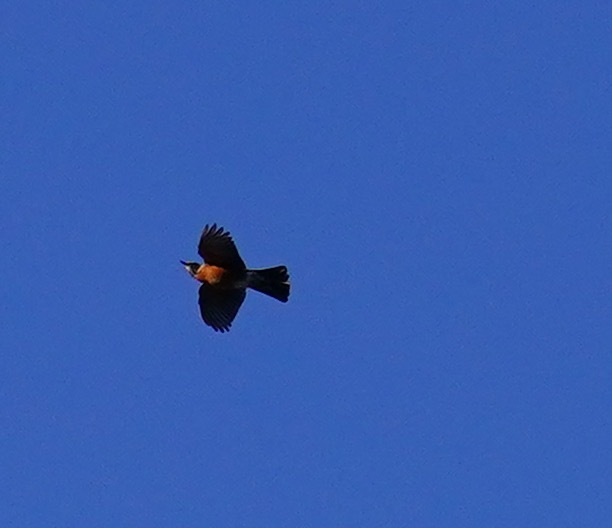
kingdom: Animalia
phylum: Chordata
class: Aves
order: Passeriformes
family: Turdidae
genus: Turdus
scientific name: Turdus migratorius
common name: American robin
